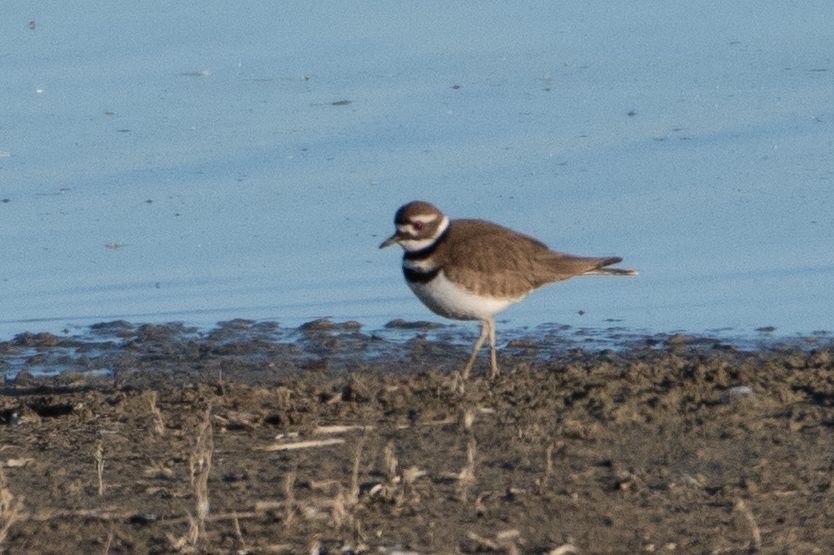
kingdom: Animalia
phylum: Chordata
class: Aves
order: Charadriiformes
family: Charadriidae
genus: Charadrius
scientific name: Charadrius vociferus
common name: Killdeer
